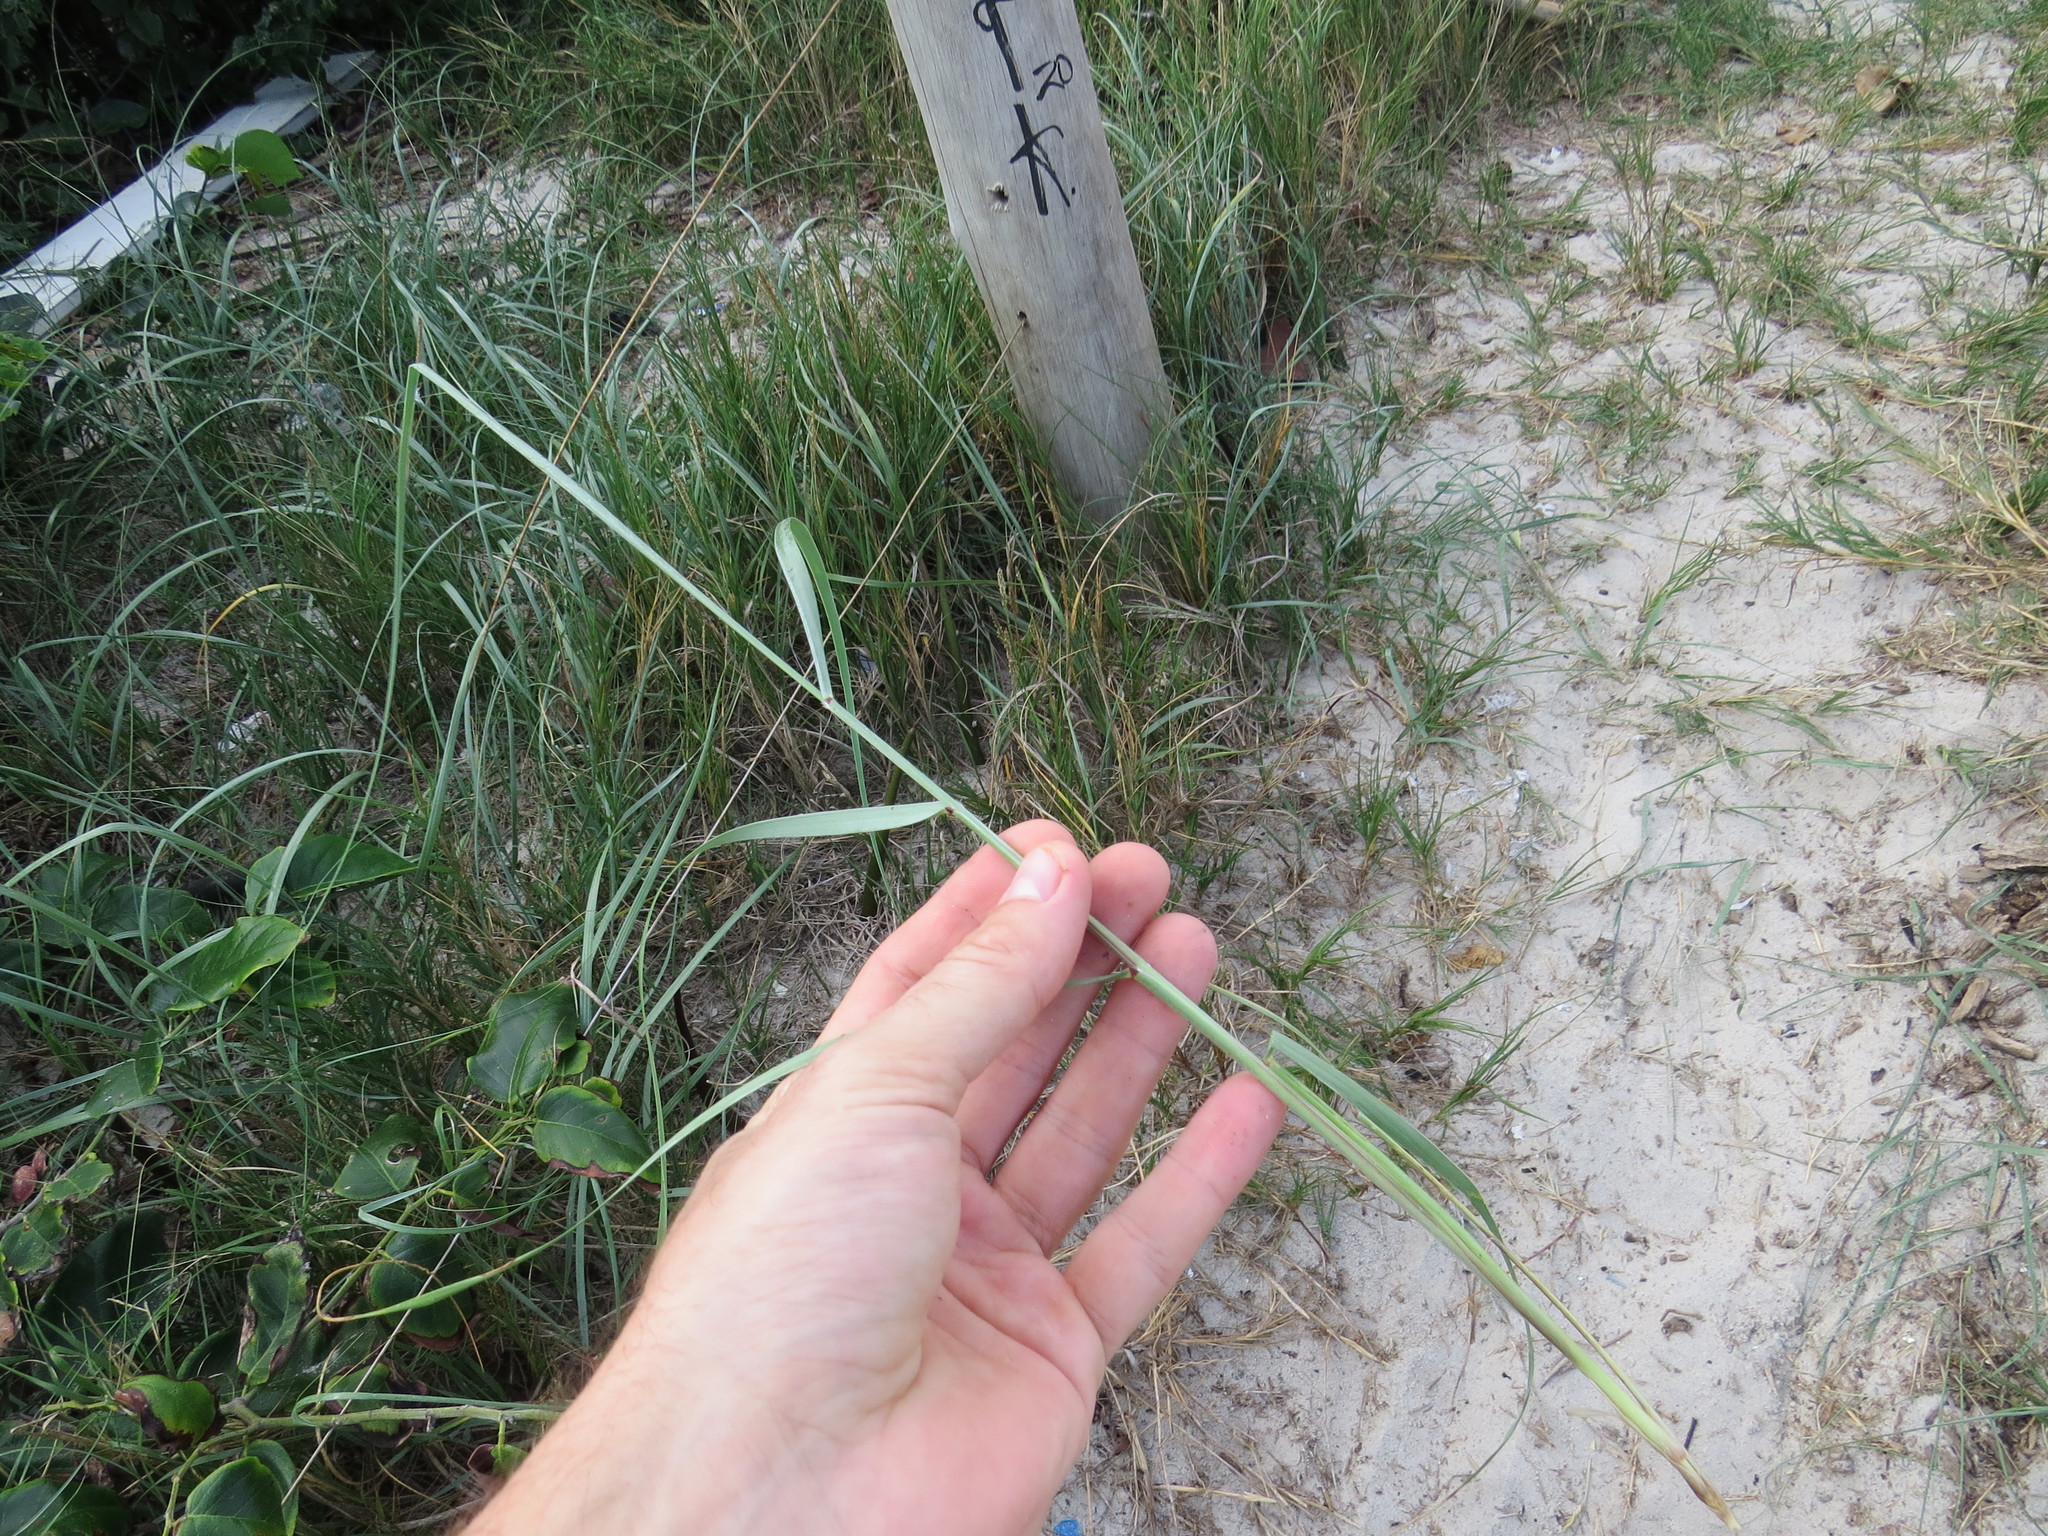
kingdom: Plantae
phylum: Tracheophyta
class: Liliopsida
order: Poales
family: Poaceae
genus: Panicum
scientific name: Panicum racemosum
